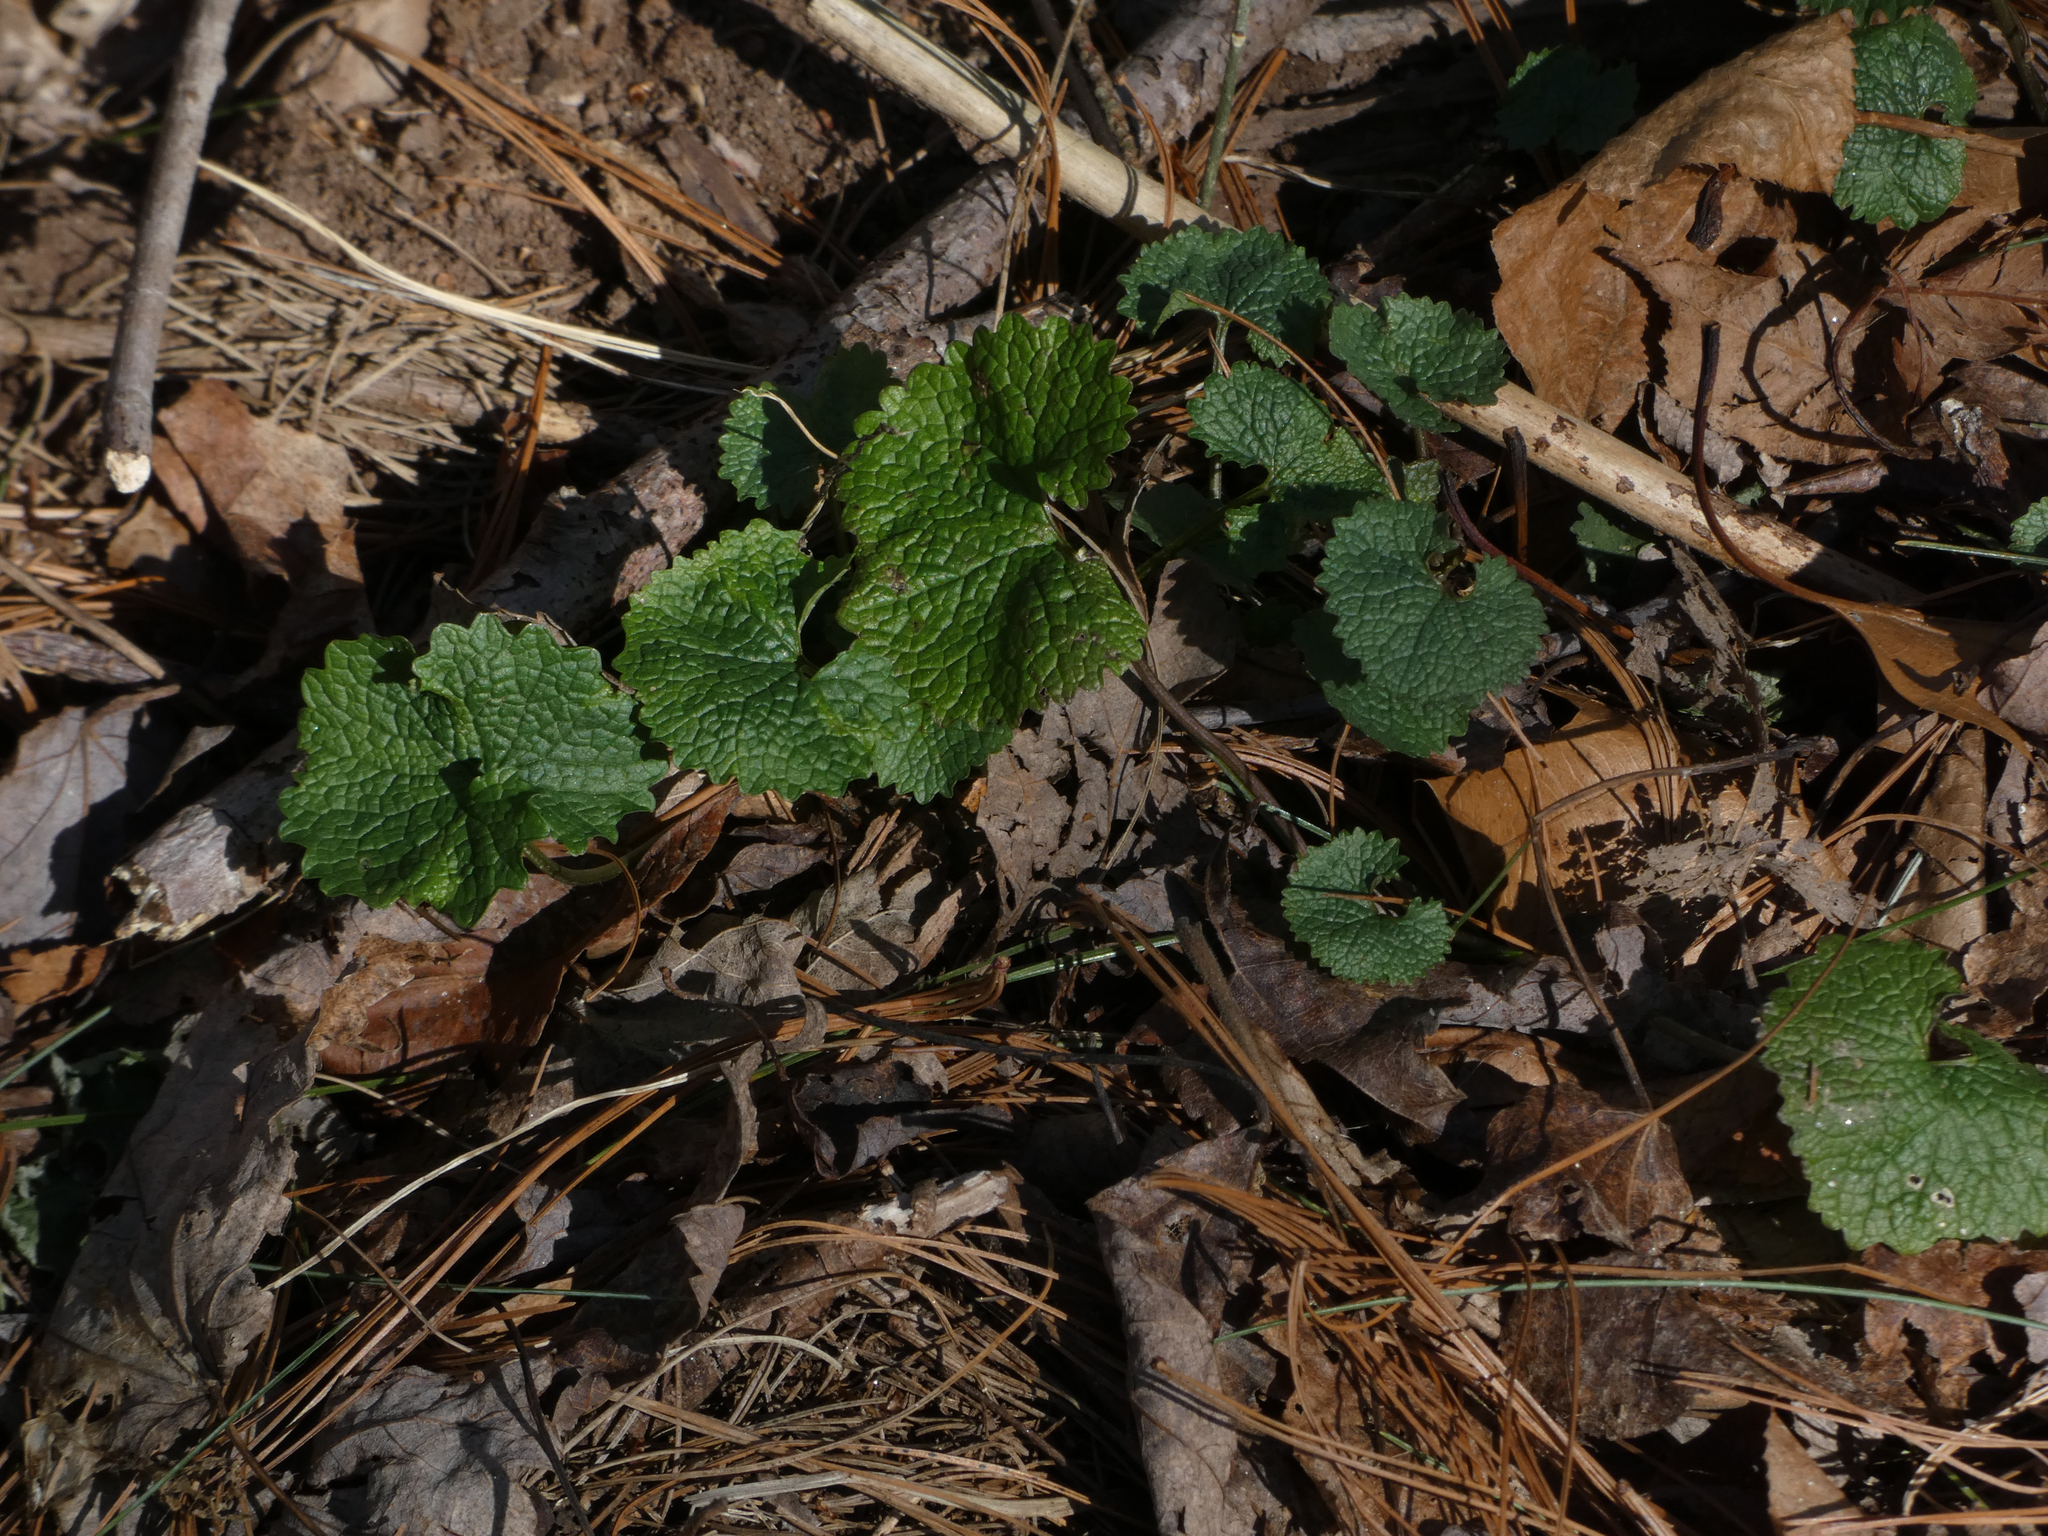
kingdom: Plantae
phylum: Tracheophyta
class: Magnoliopsida
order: Brassicales
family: Brassicaceae
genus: Alliaria
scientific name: Alliaria petiolata
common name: Garlic mustard
